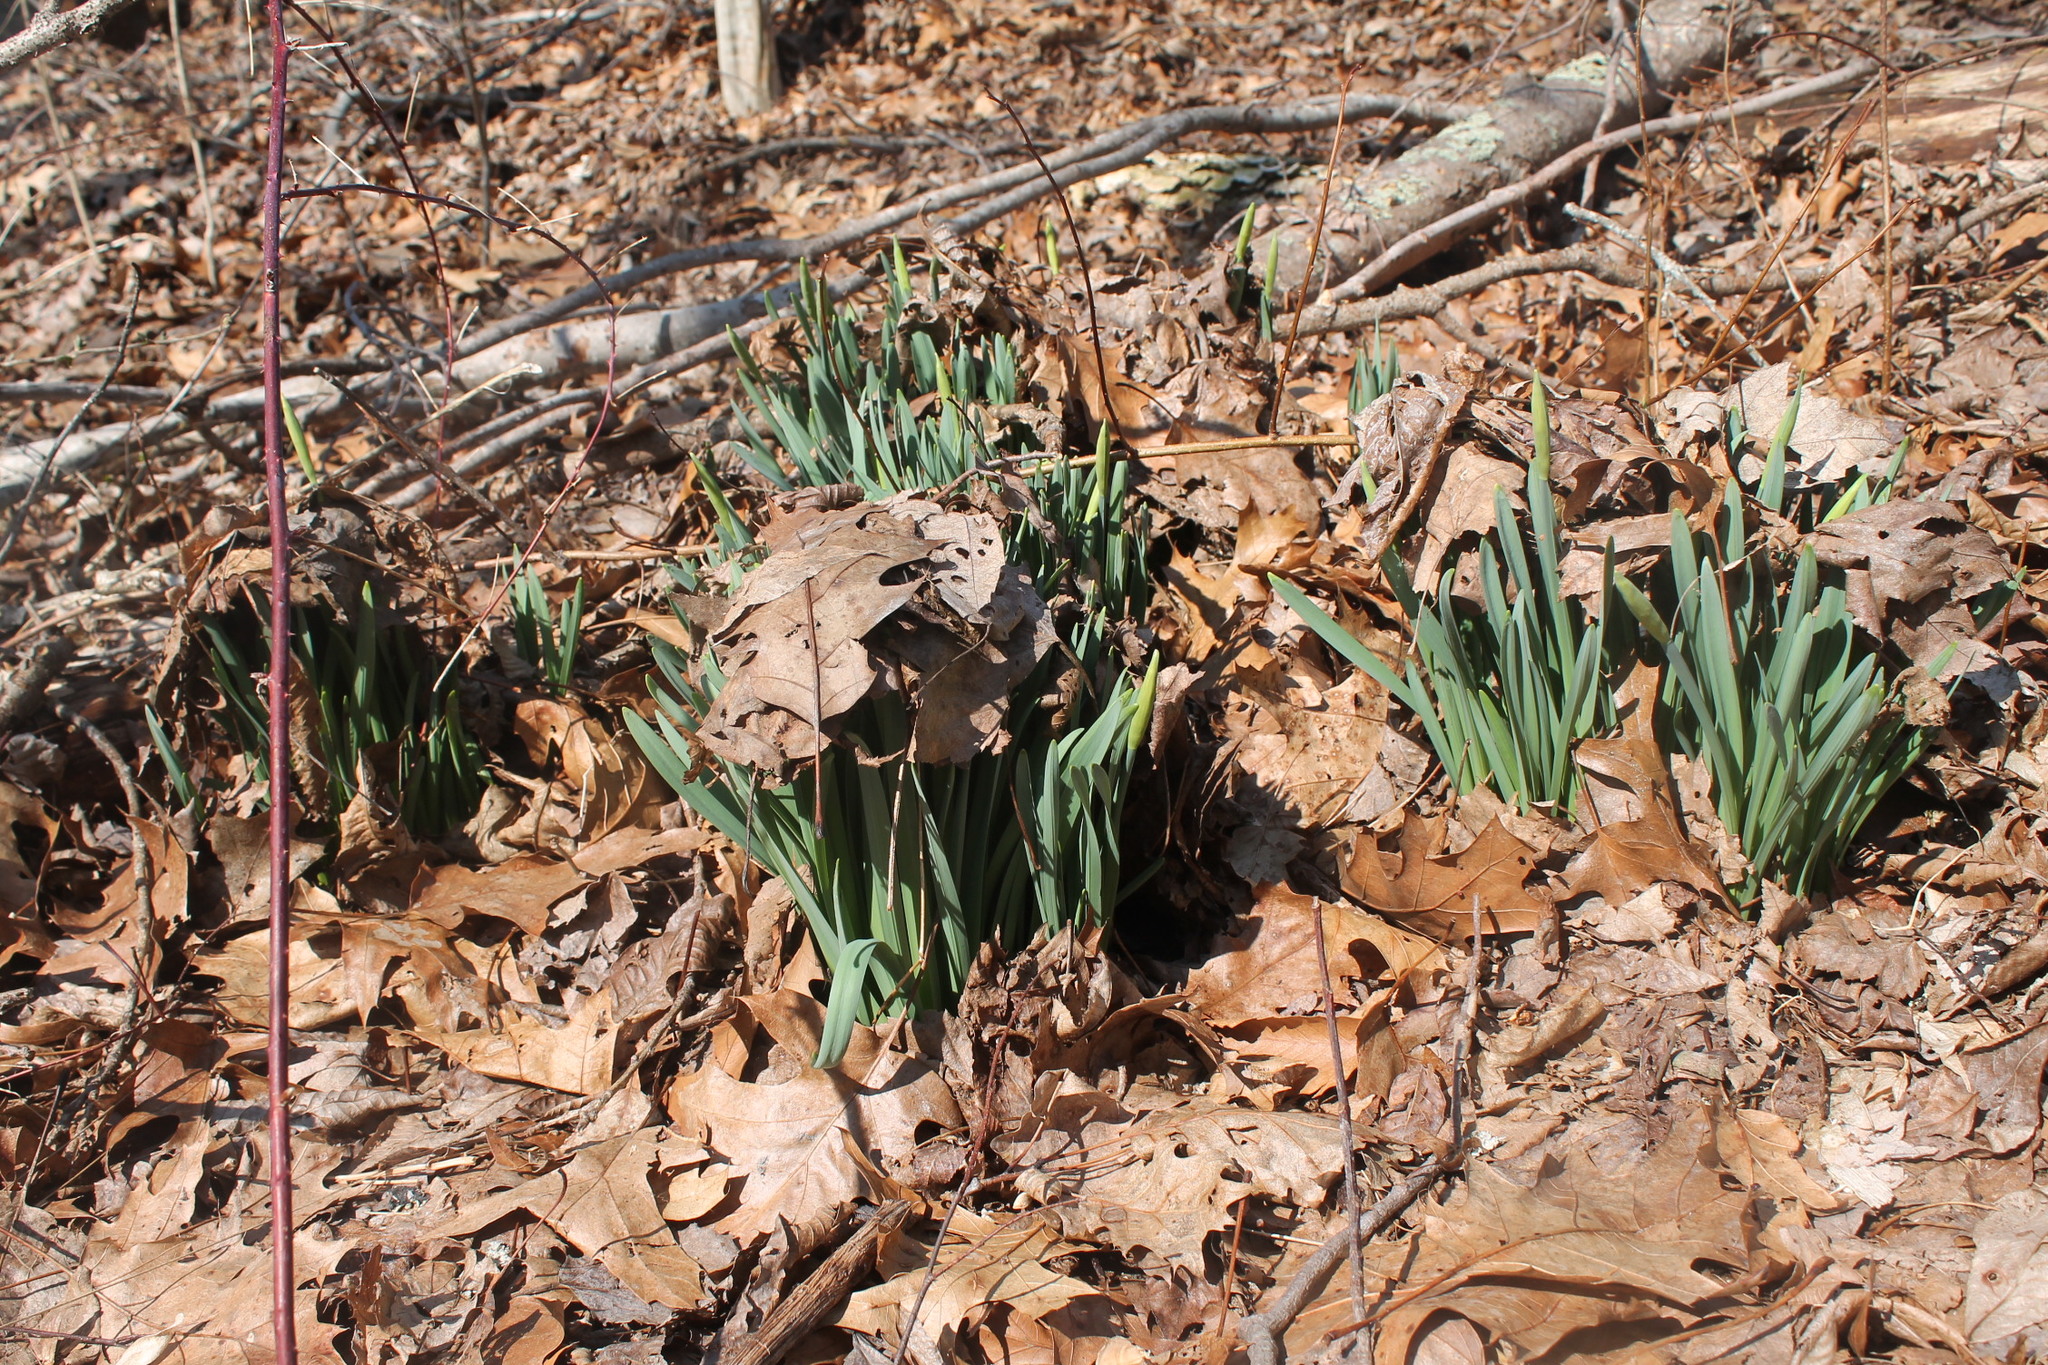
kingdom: Plantae
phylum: Tracheophyta
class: Liliopsida
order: Asparagales
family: Amaryllidaceae
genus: Narcissus
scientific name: Narcissus
